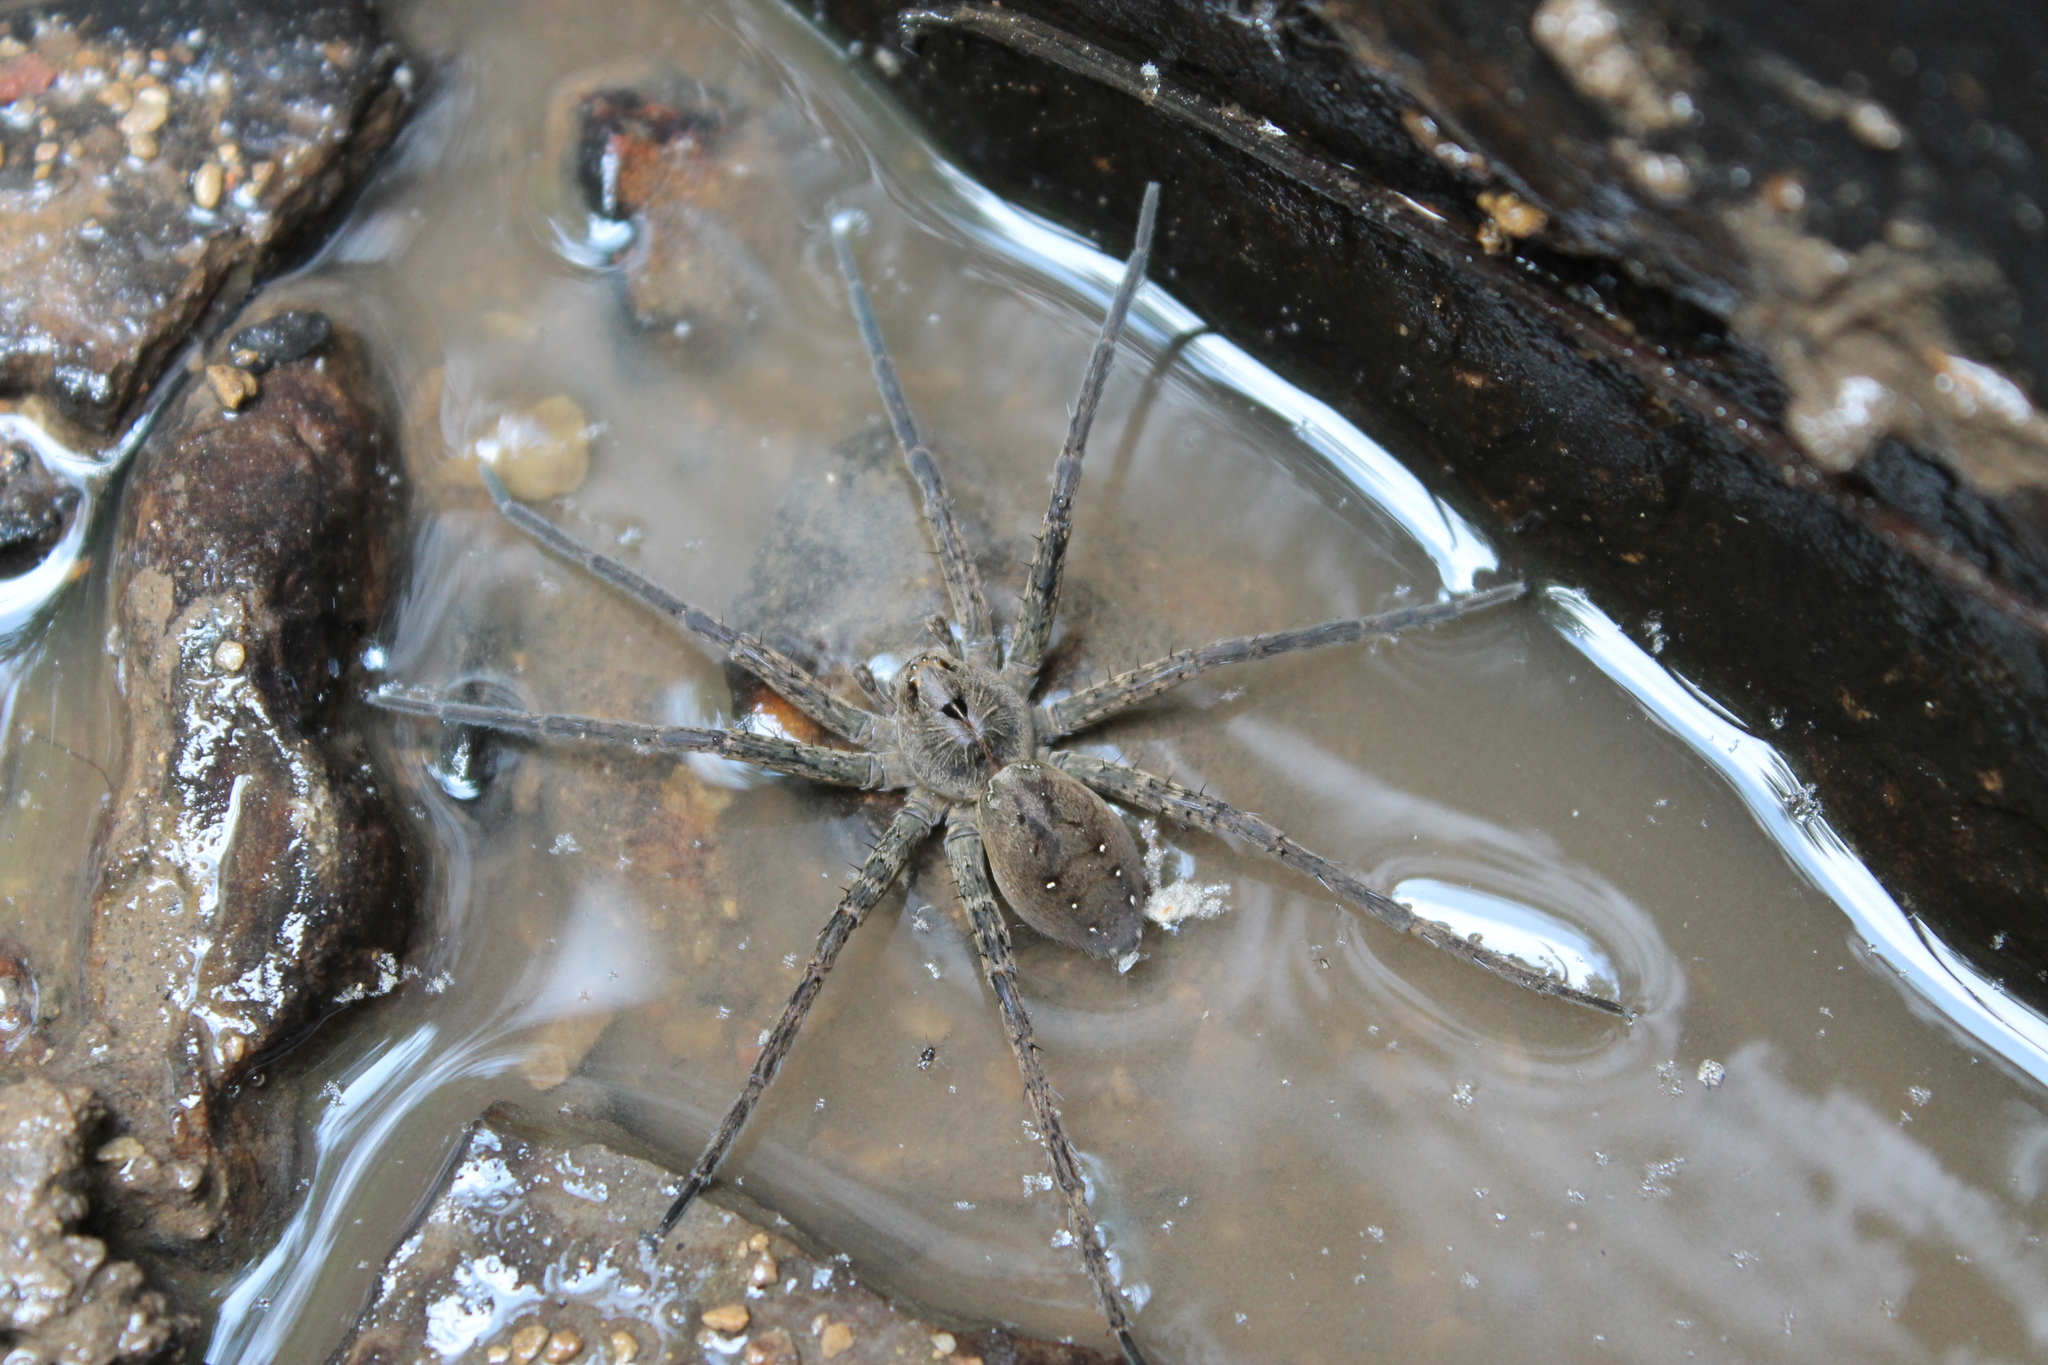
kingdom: Animalia
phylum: Arthropoda
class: Arachnida
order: Araneae
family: Pisauridae
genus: Dolomedes
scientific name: Dolomedes vittatus
